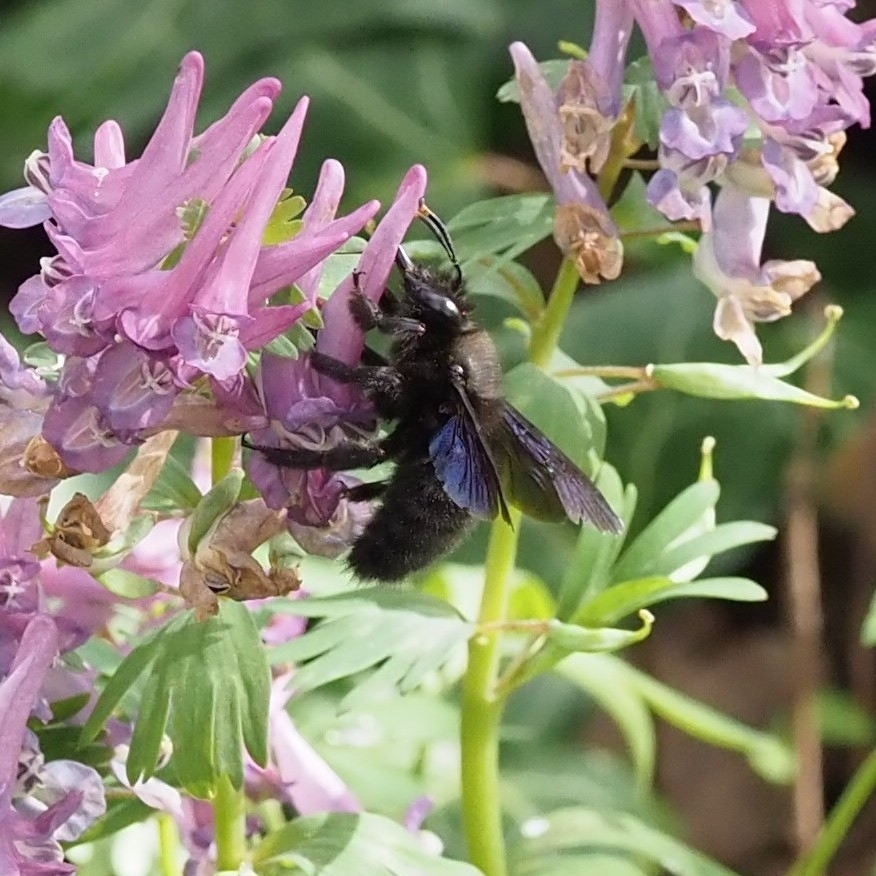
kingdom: Animalia
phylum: Arthropoda
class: Insecta
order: Hymenoptera
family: Apidae
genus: Xylocopa
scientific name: Xylocopa violacea
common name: Violet carpenter bee
